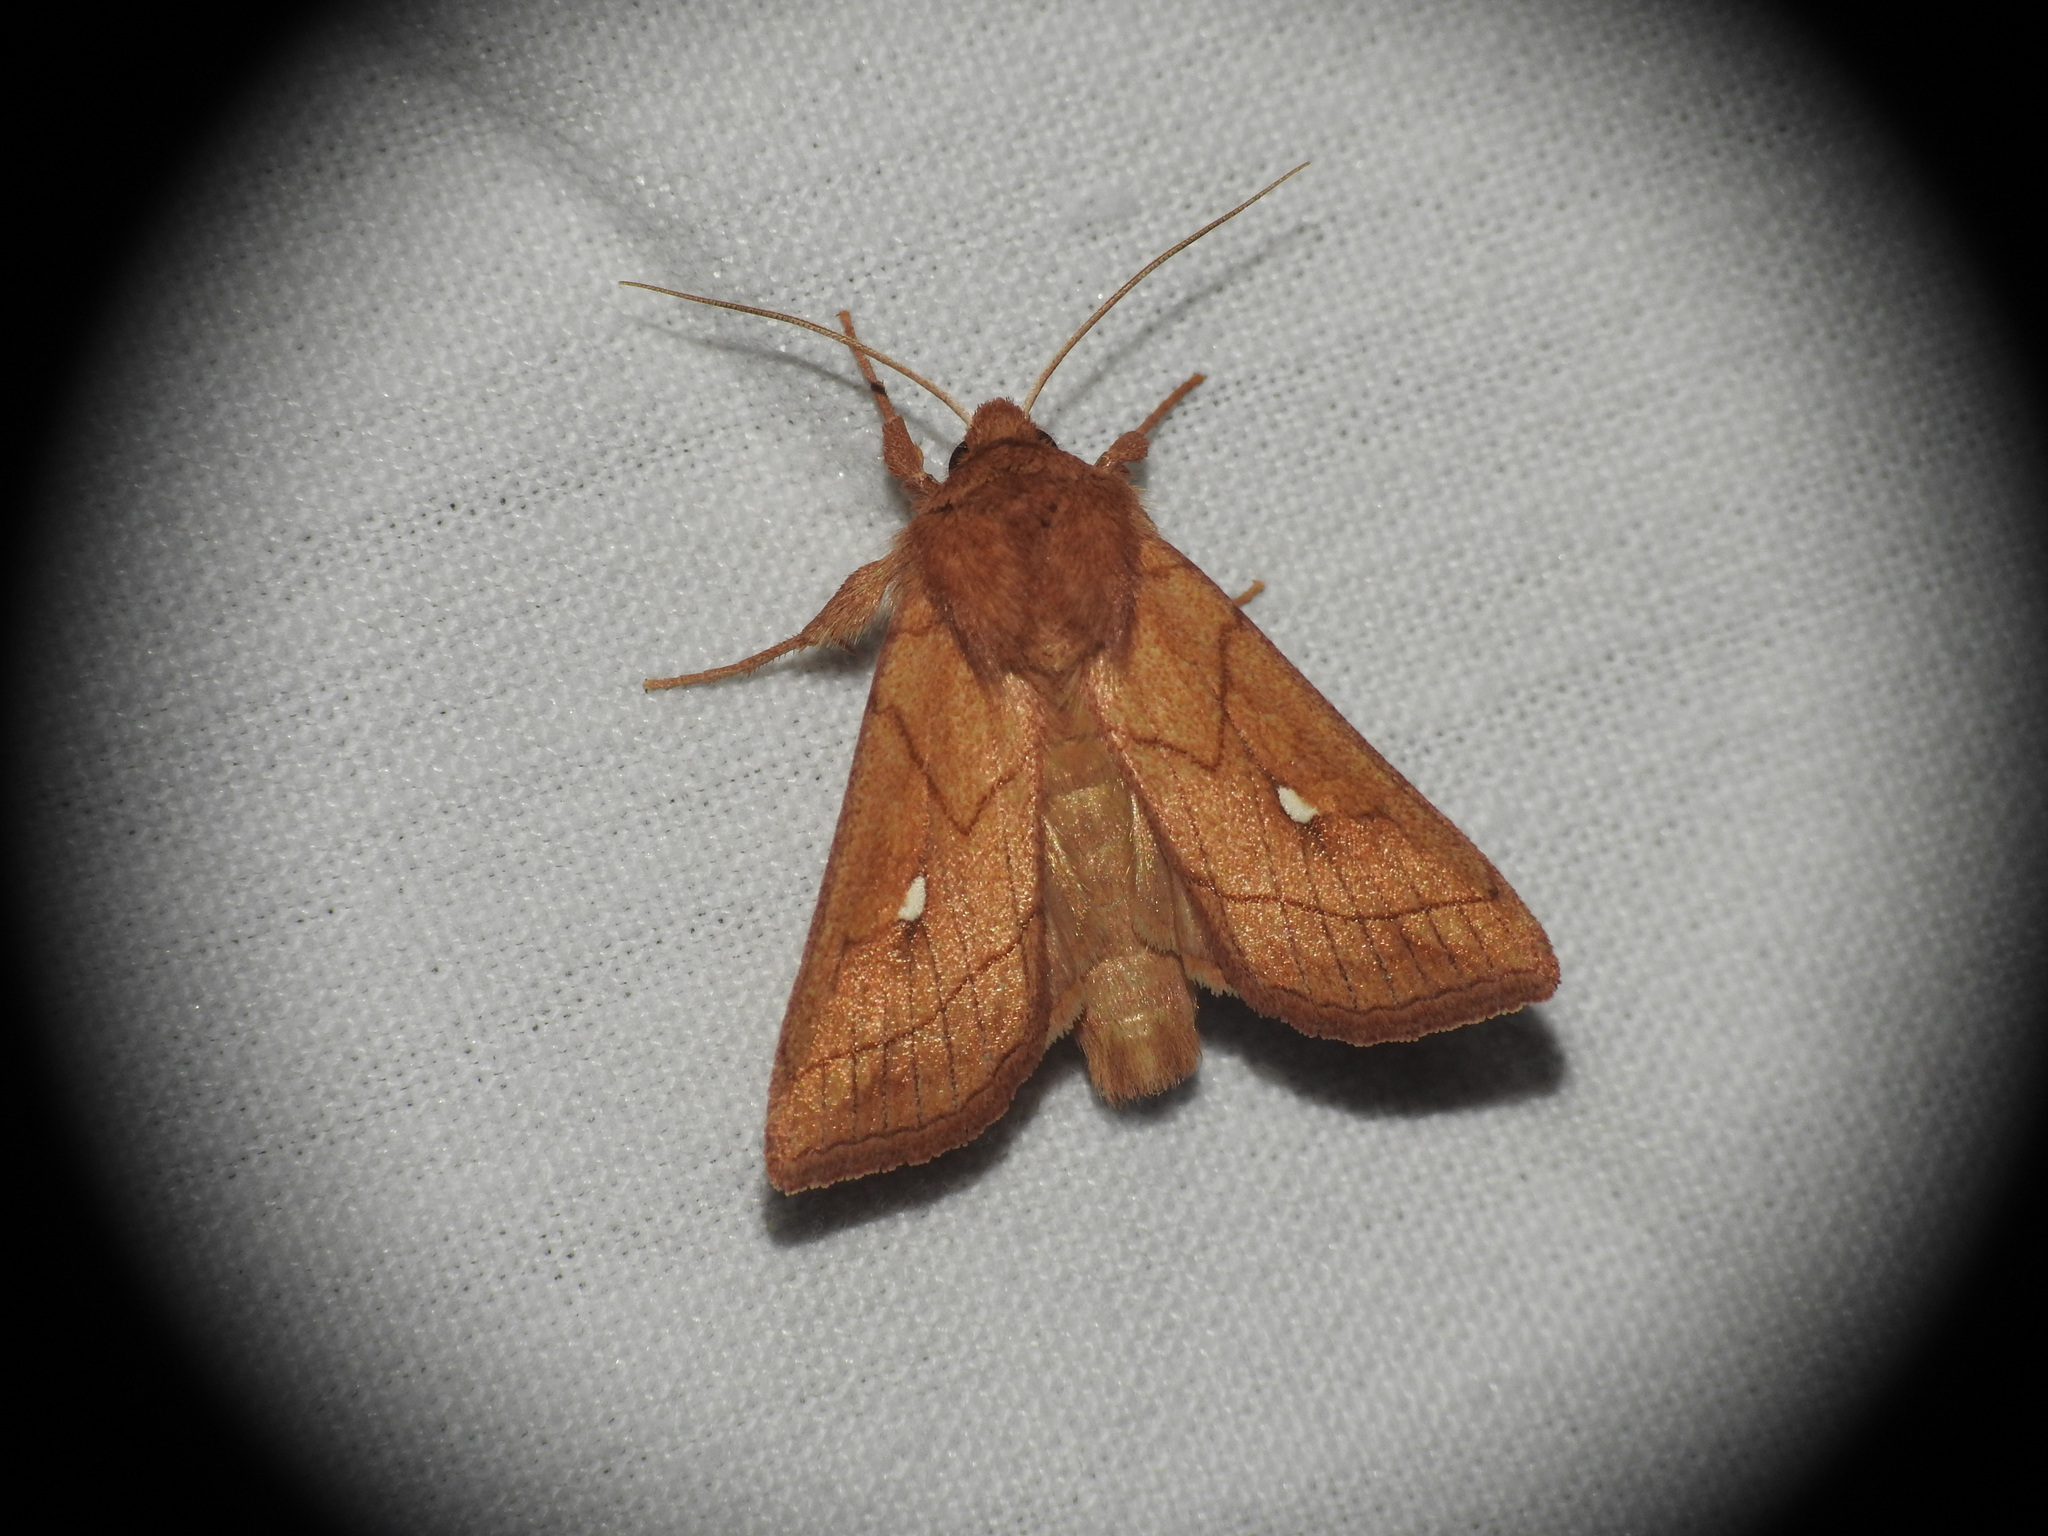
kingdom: Animalia
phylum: Arthropoda
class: Insecta
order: Lepidoptera
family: Noctuidae
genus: Mythimna
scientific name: Mythimna conigera
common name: Brown-line bright-eye
